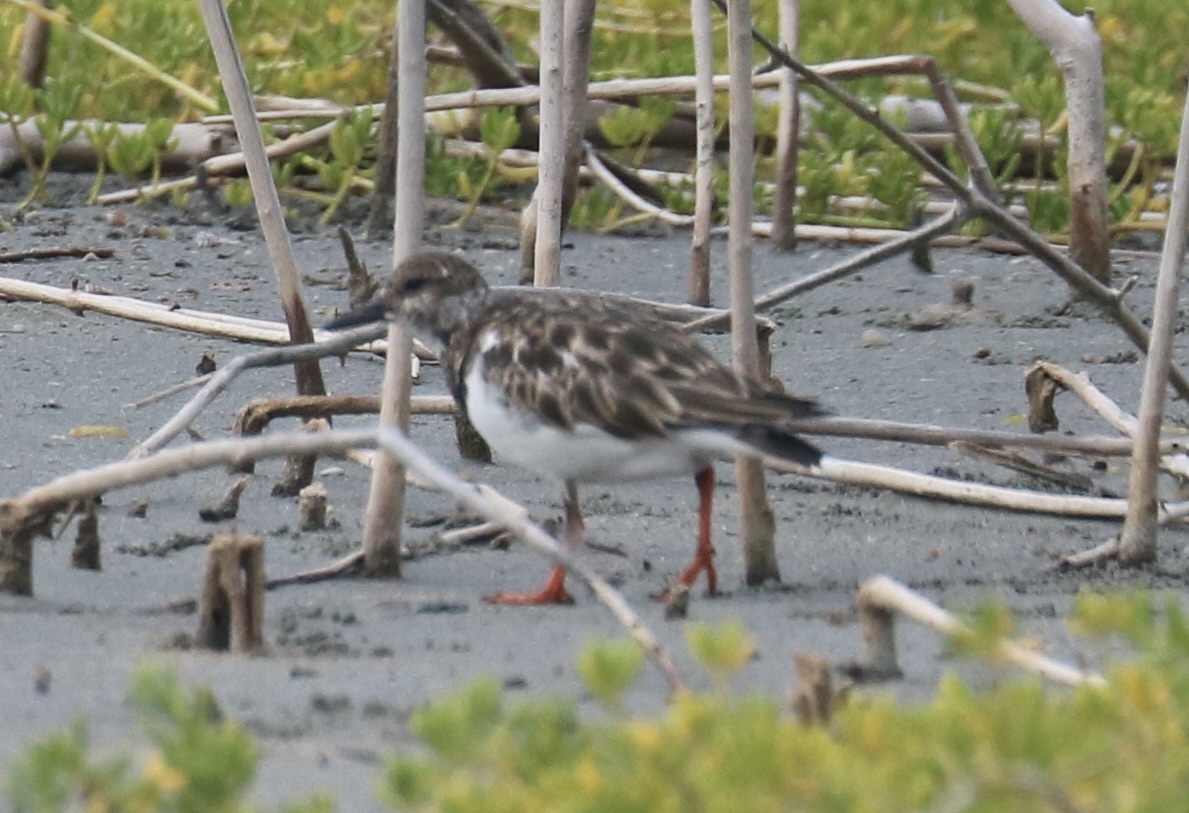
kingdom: Animalia
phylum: Chordata
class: Aves
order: Charadriiformes
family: Scolopacidae
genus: Arenaria
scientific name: Arenaria interpres
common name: Ruddy turnstone
